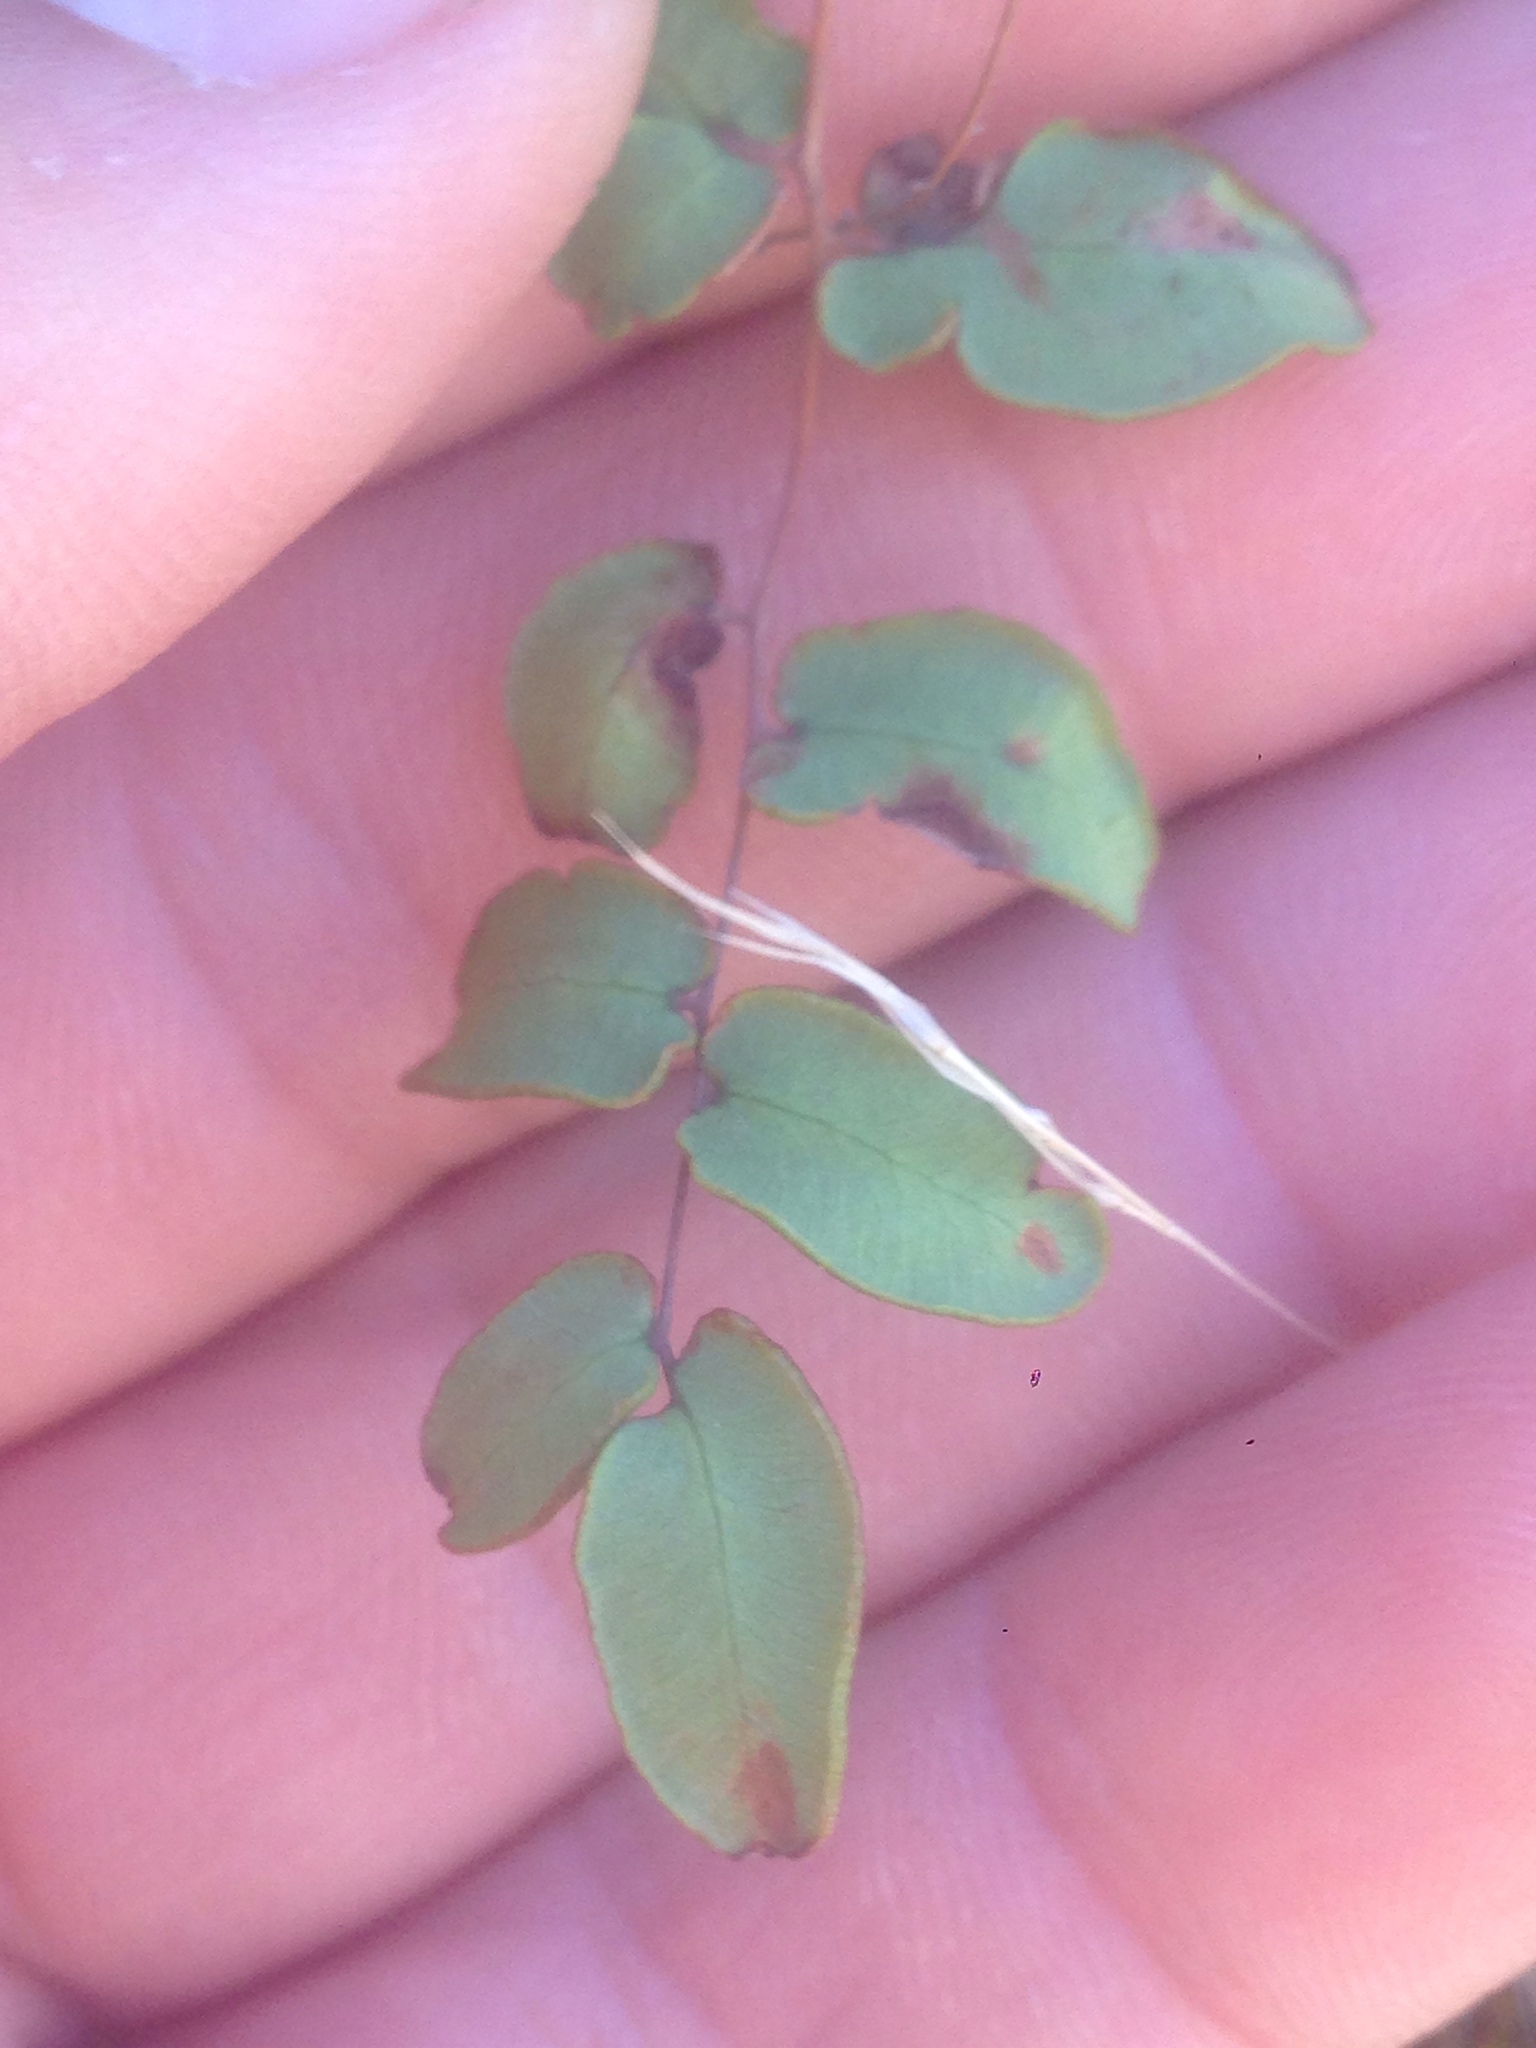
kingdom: Plantae
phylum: Tracheophyta
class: Polypodiopsida
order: Polypodiales
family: Pteridaceae
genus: Pellaea
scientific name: Pellaea andromedifolia
